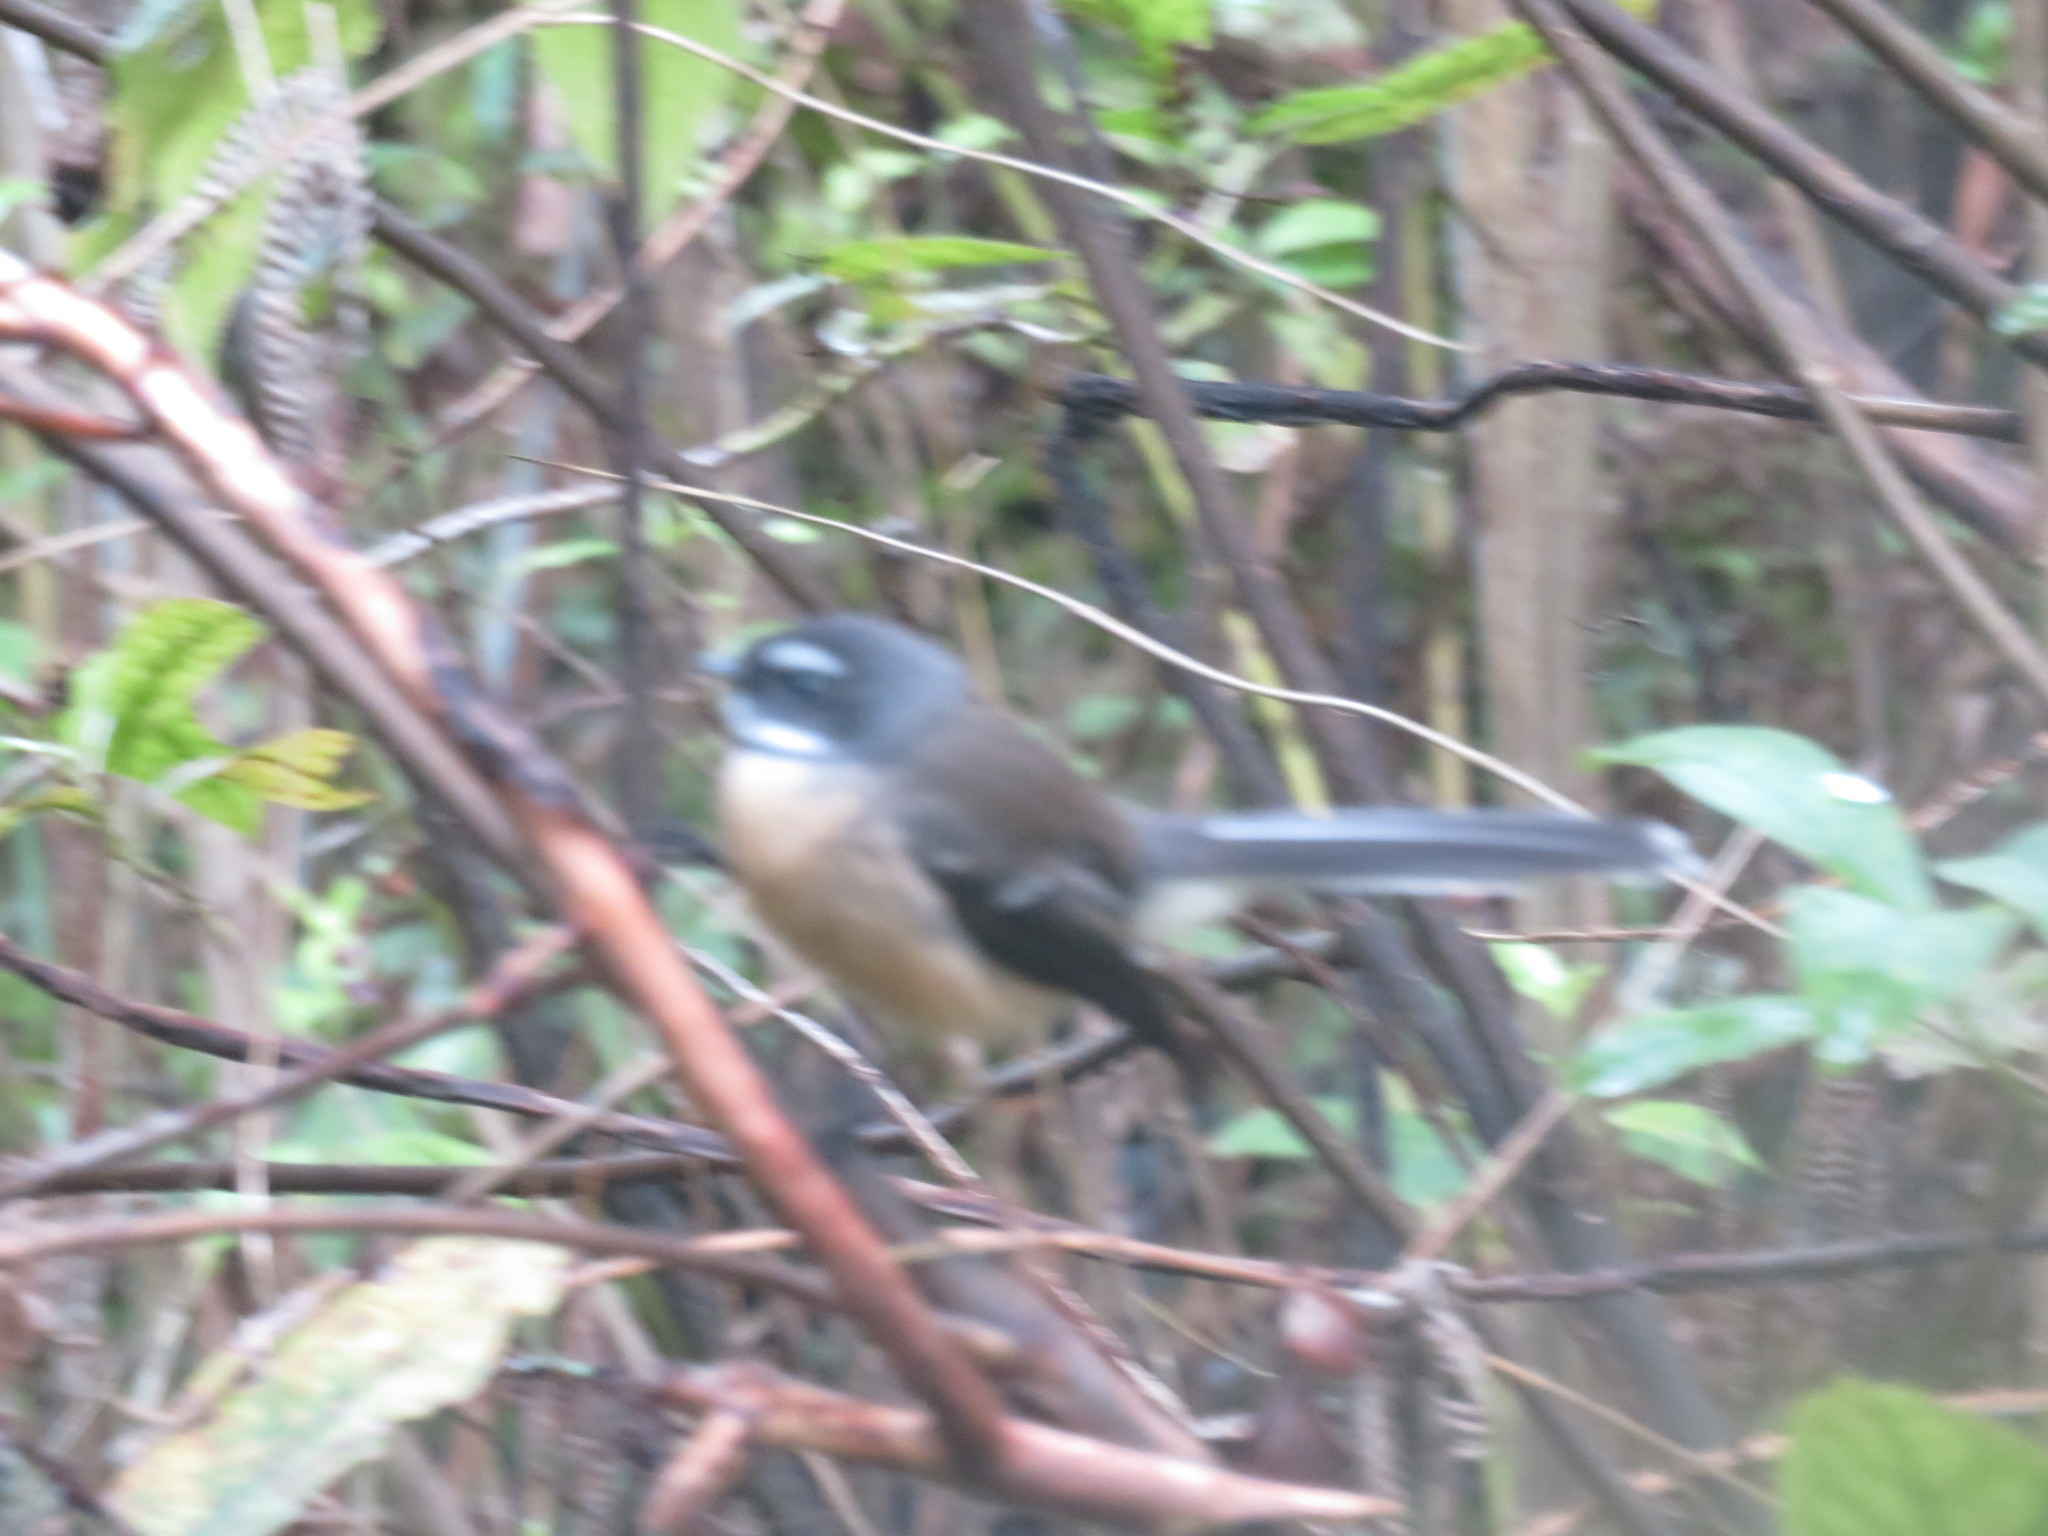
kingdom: Animalia
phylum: Chordata
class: Aves
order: Passeriformes
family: Rhipiduridae
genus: Rhipidura
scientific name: Rhipidura fuliginosa
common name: New zealand fantail
